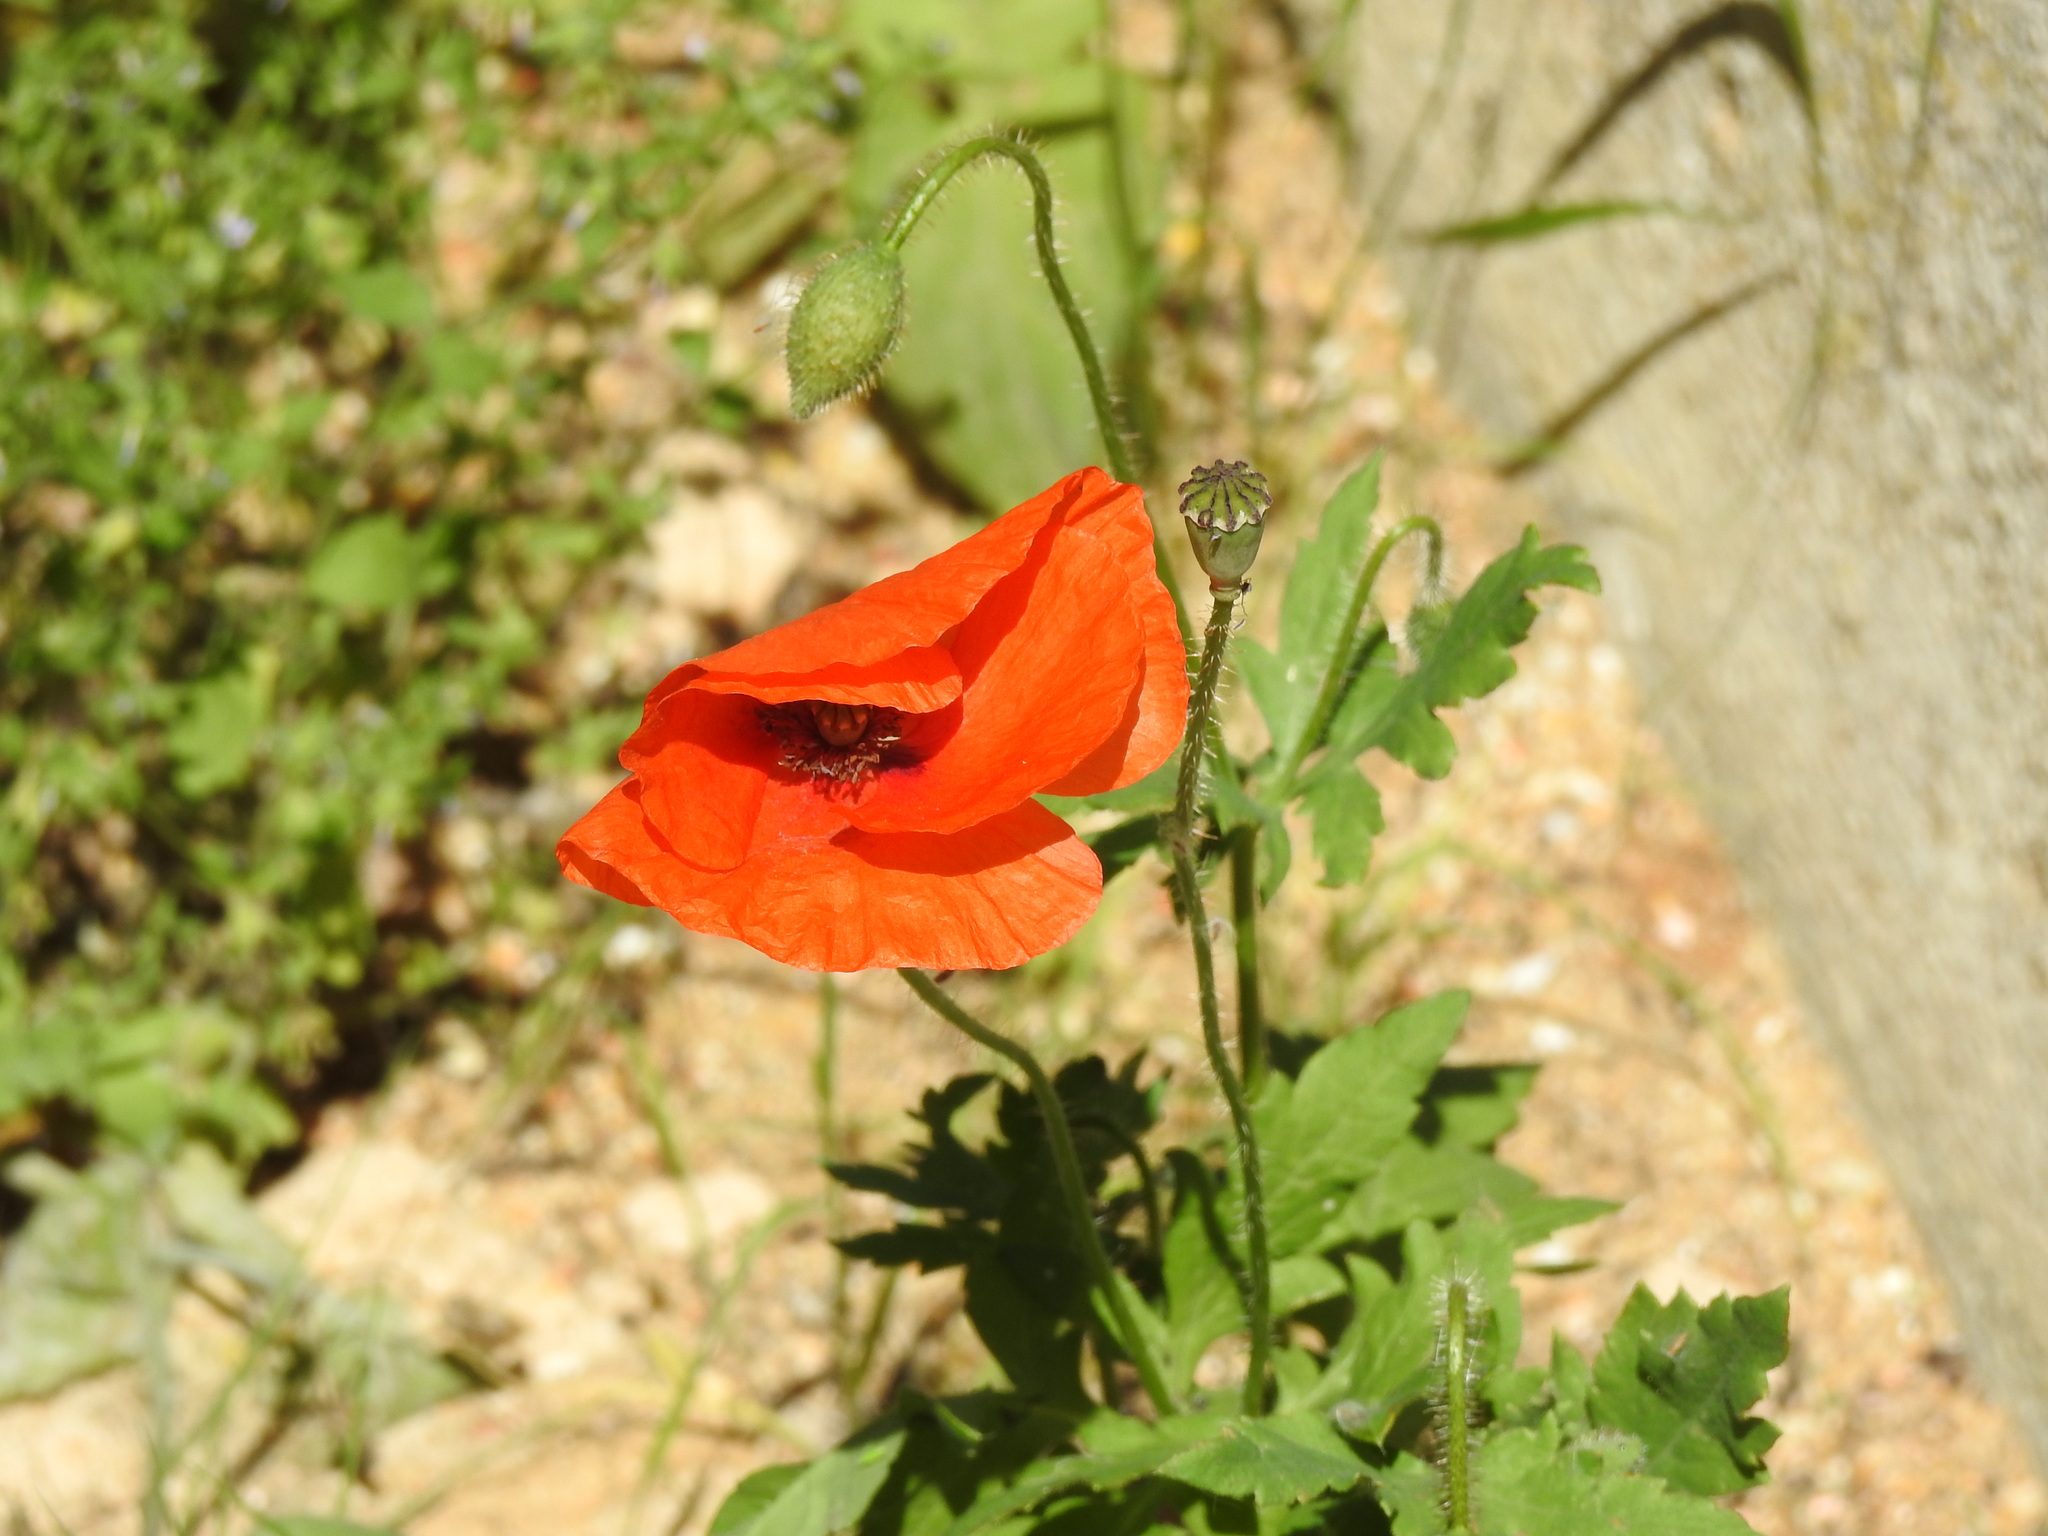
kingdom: Plantae
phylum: Tracheophyta
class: Magnoliopsida
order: Ranunculales
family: Papaveraceae
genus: Papaver
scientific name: Papaver rhoeas
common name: Corn poppy
